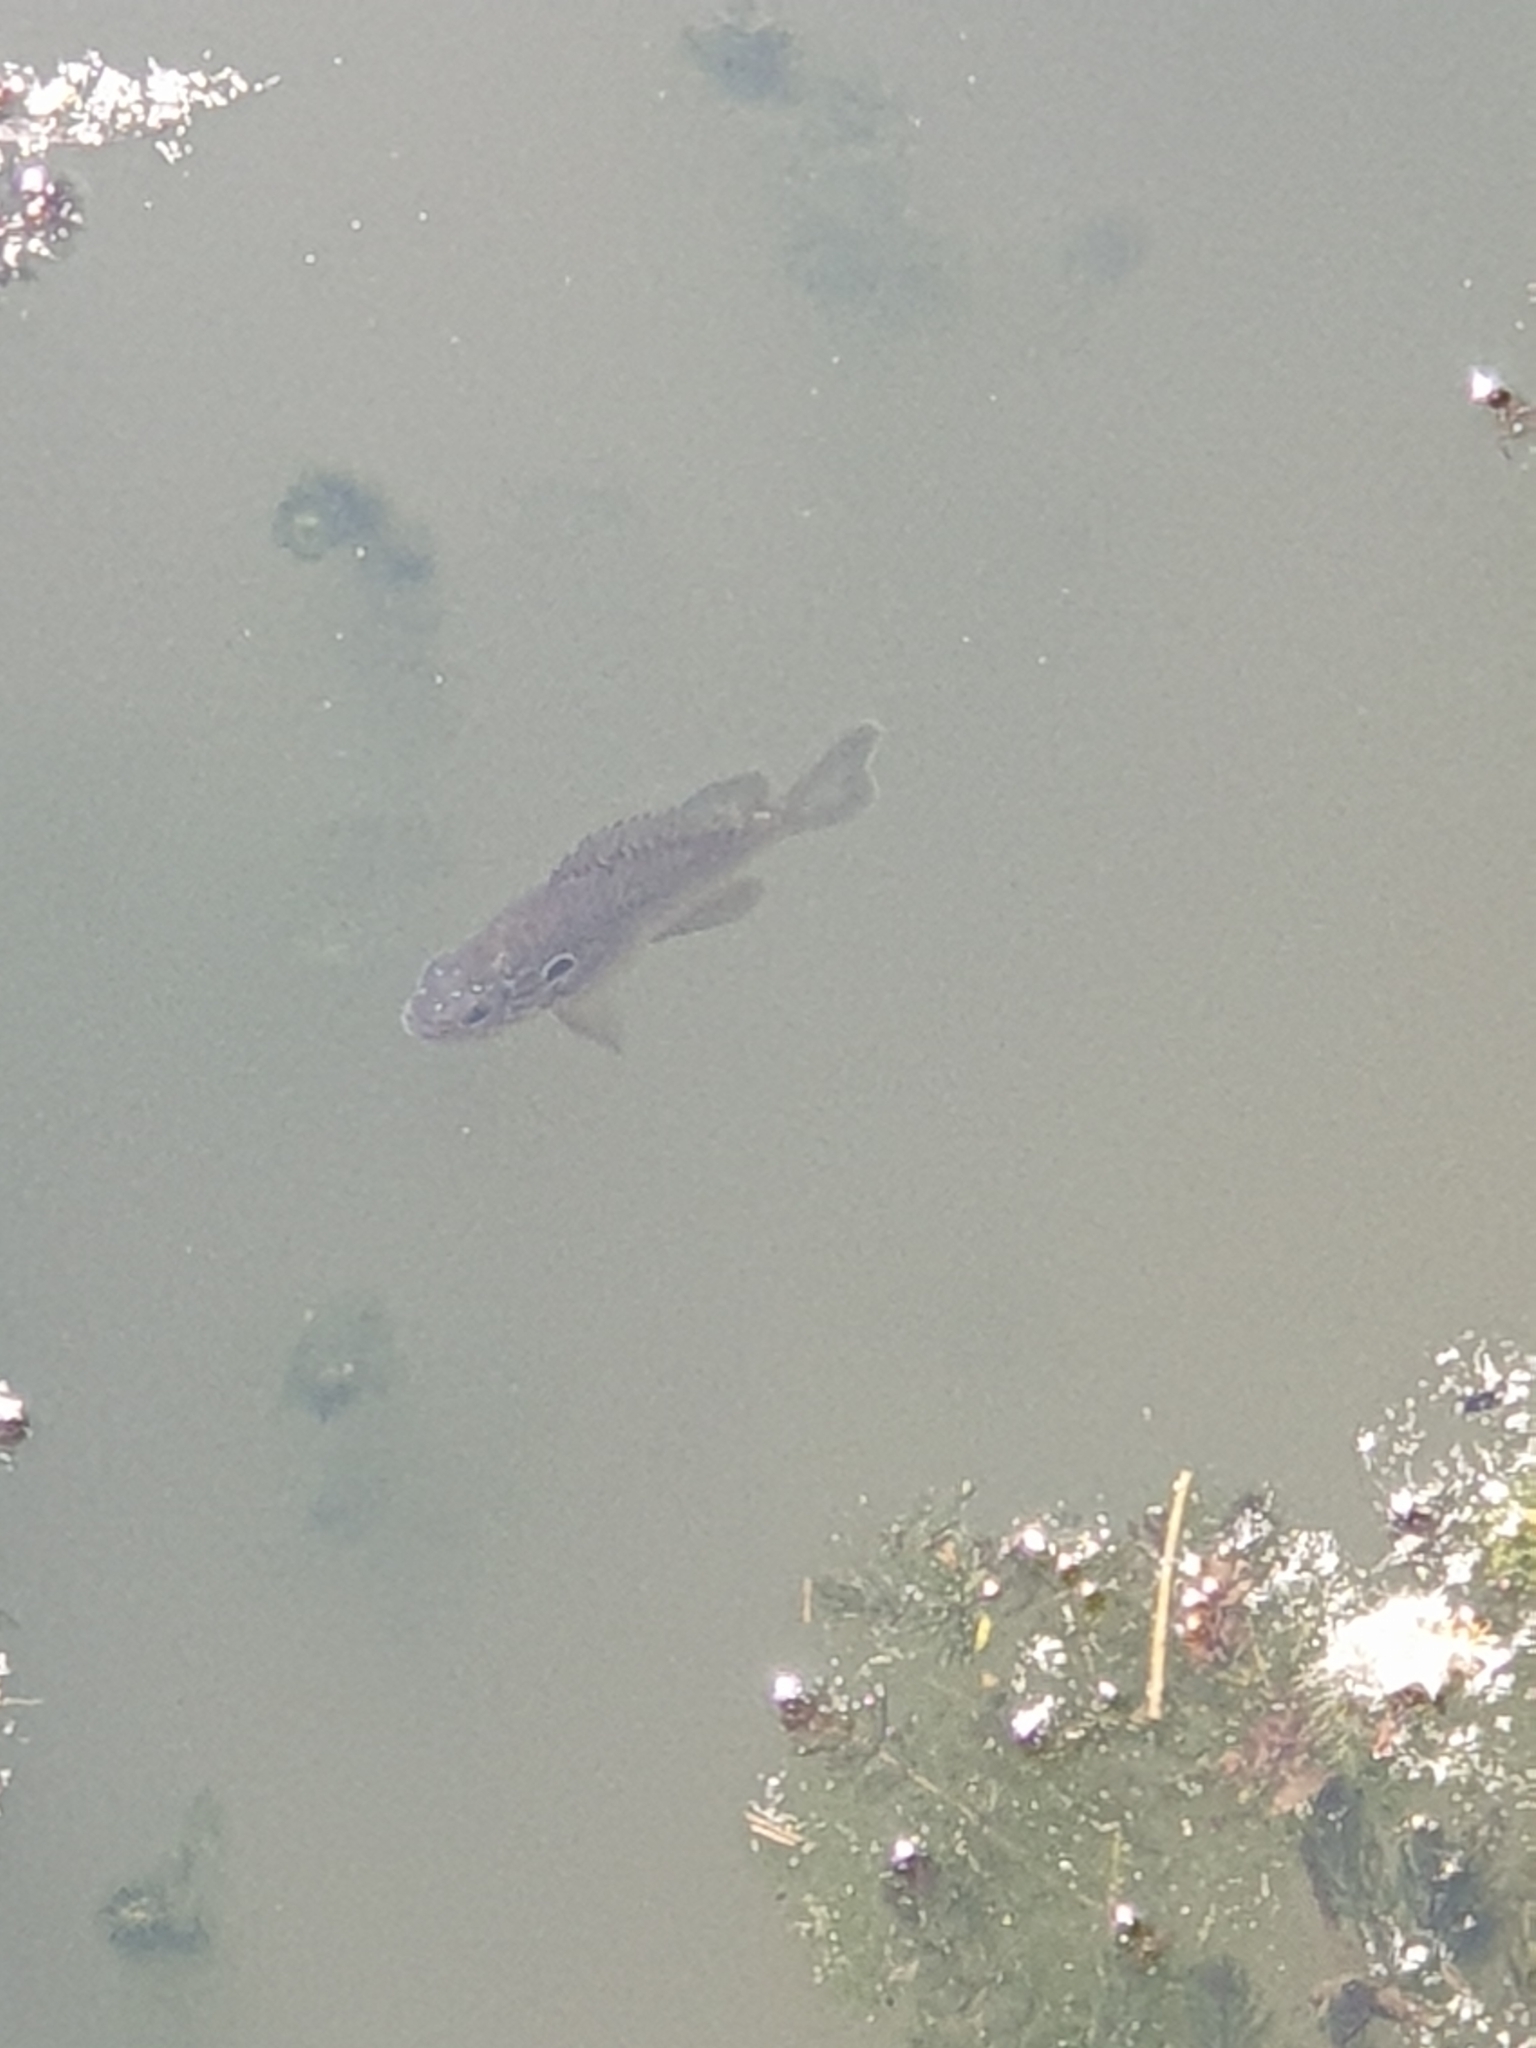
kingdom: Animalia
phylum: Chordata
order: Perciformes
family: Centrarchidae
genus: Lepomis
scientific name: Lepomis gibbosus
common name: Pumpkinseed
